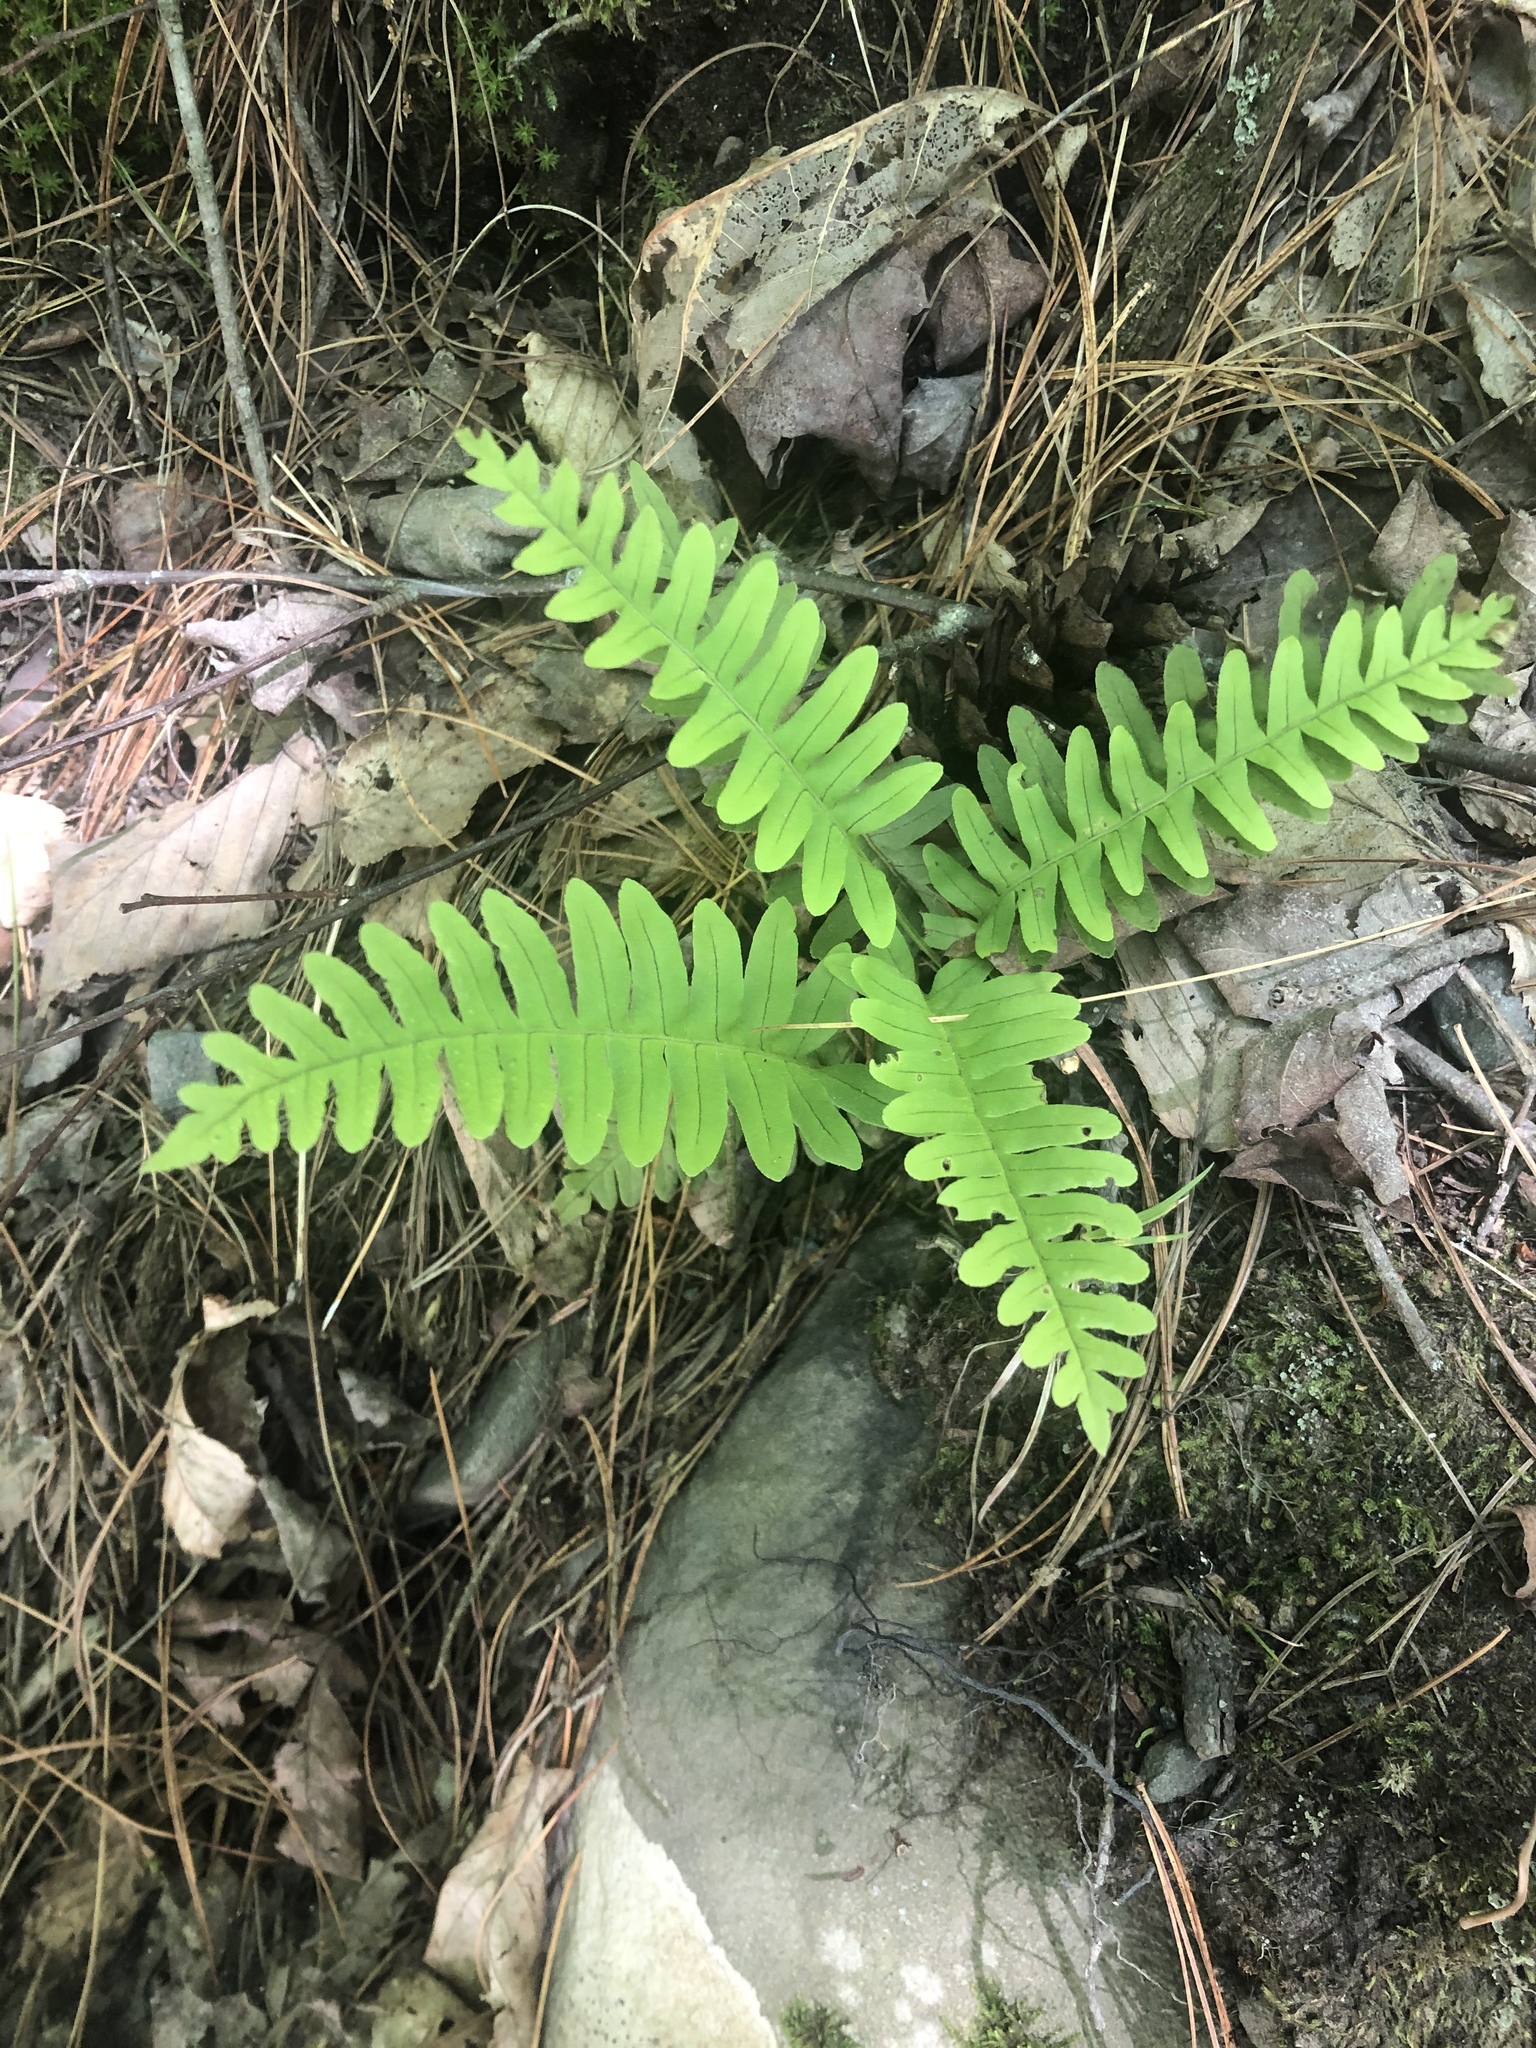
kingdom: Plantae
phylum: Tracheophyta
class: Polypodiopsida
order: Polypodiales
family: Polypodiaceae
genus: Polypodium
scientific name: Polypodium virginianum
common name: American wall fern
